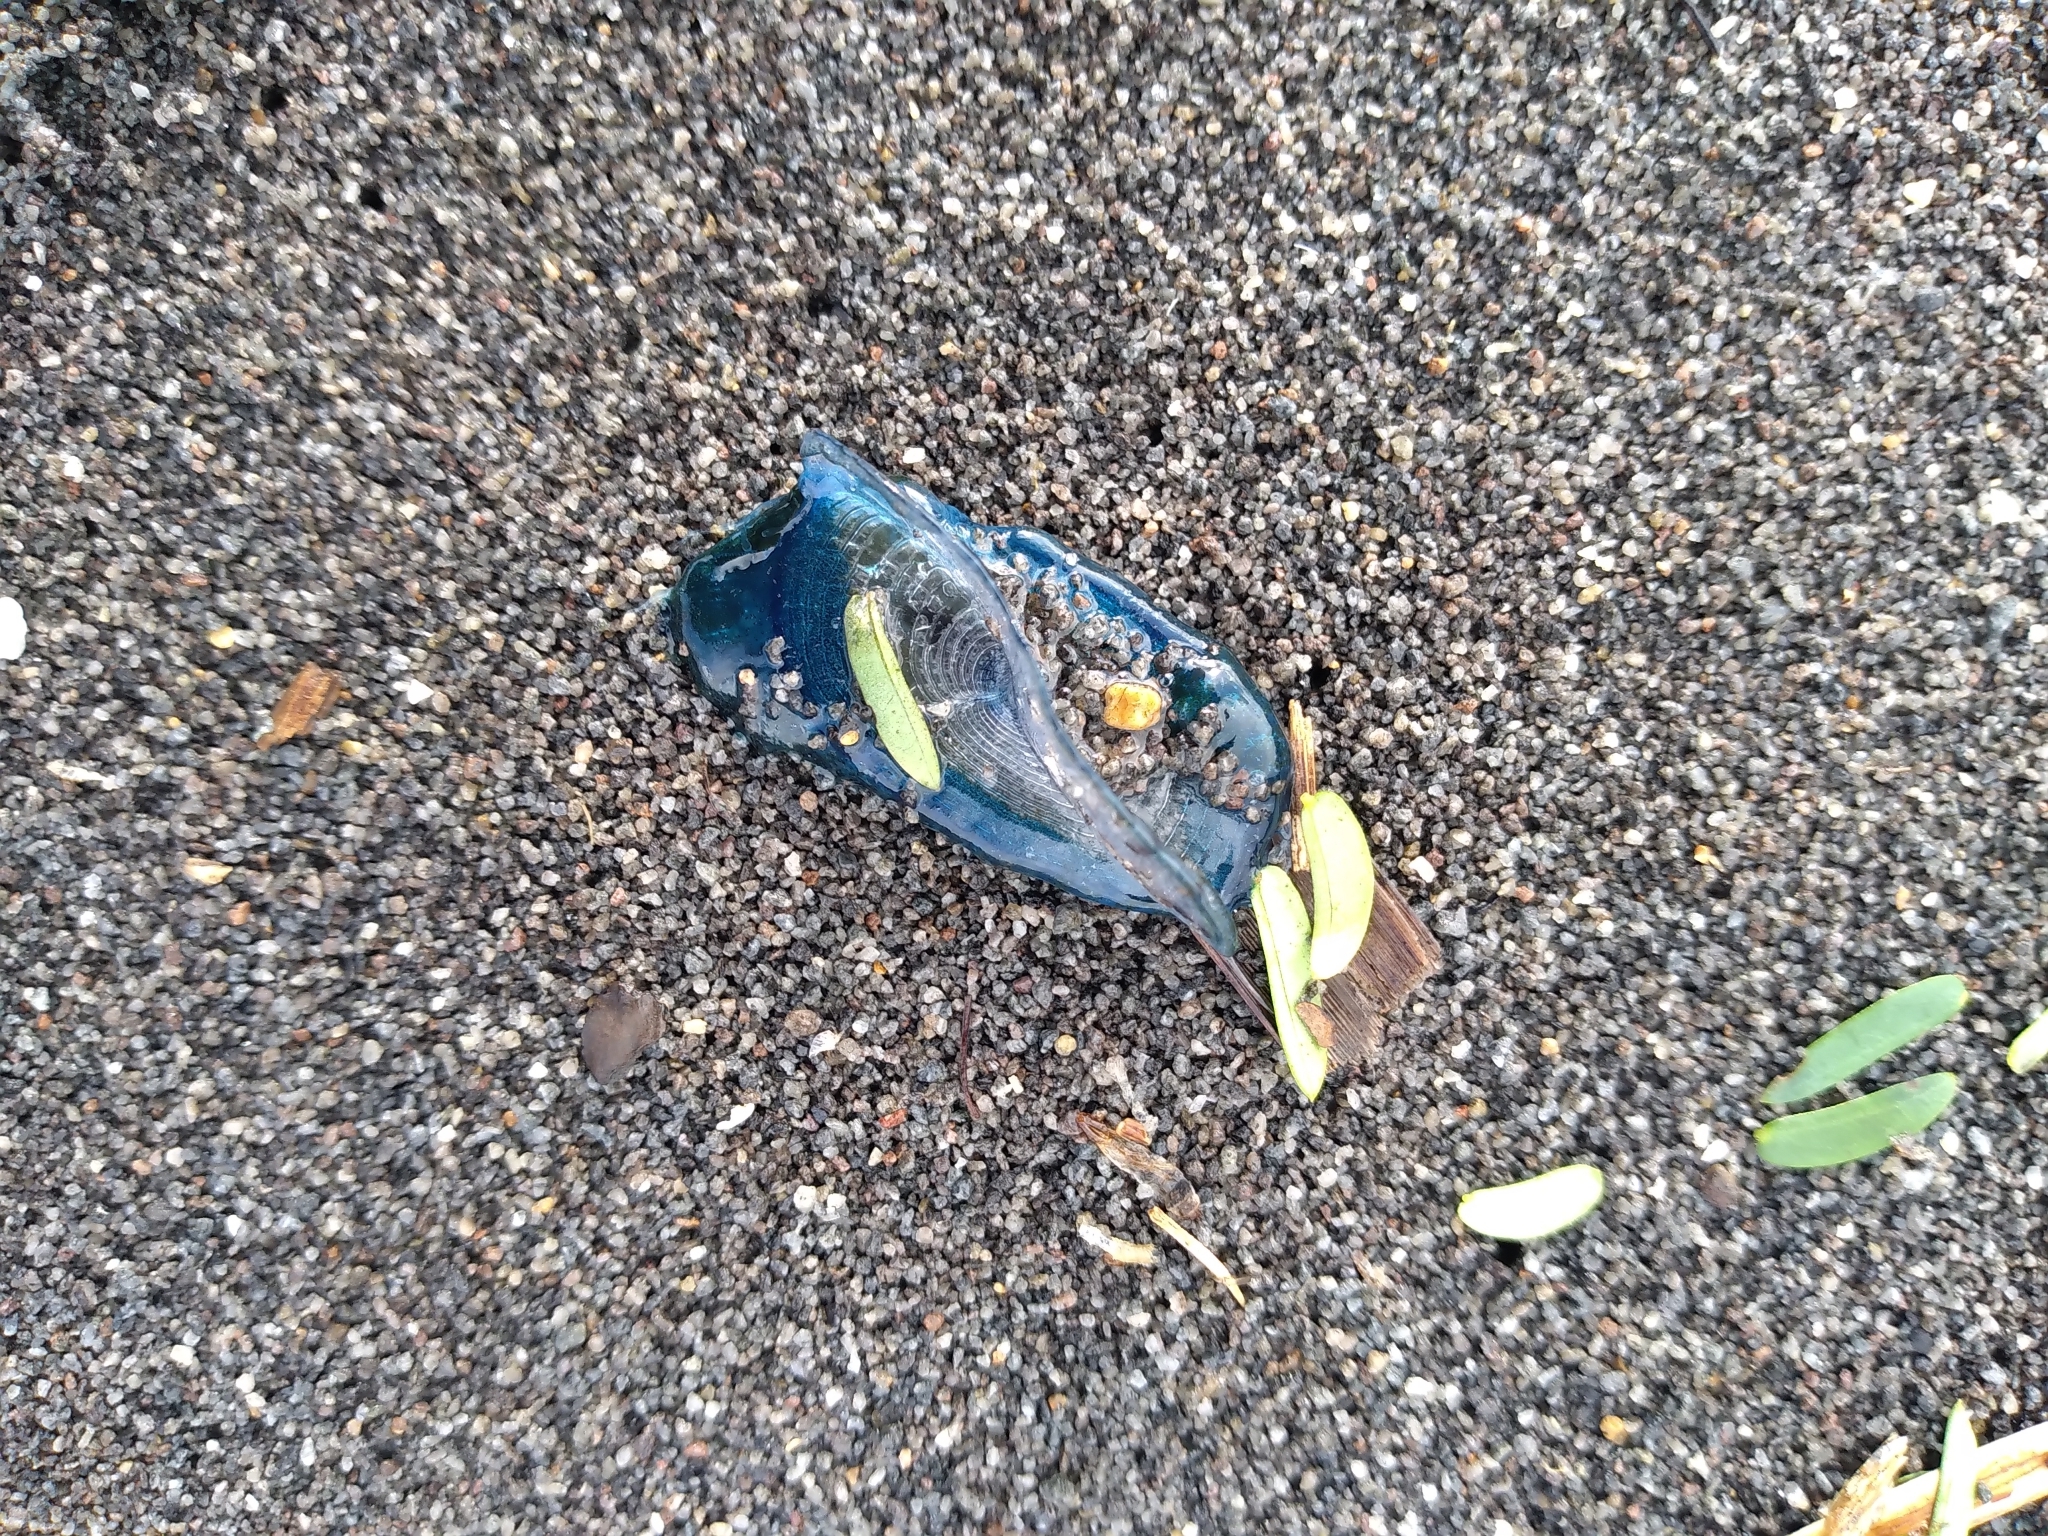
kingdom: Animalia
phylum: Cnidaria
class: Hydrozoa
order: Anthoathecata
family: Porpitidae
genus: Velella
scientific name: Velella velella
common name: By-the-wind-sailor
